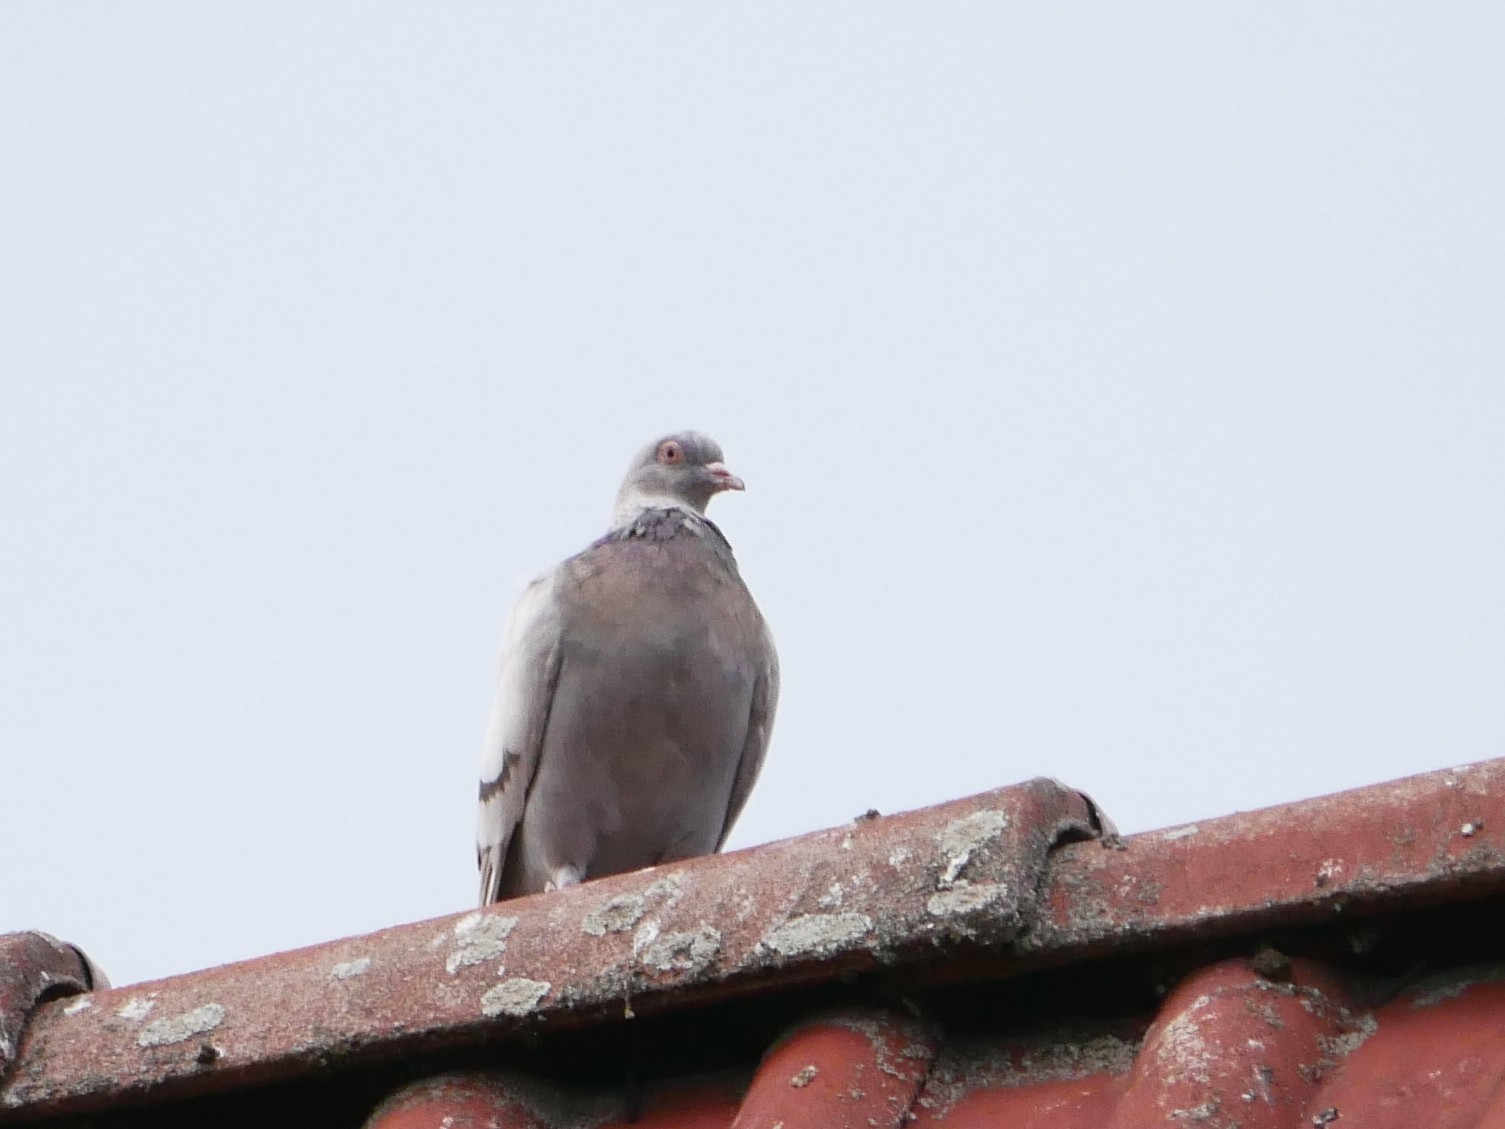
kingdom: Animalia
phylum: Chordata
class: Aves
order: Columbiformes
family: Columbidae
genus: Columba
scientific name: Columba livia
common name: Rock pigeon
